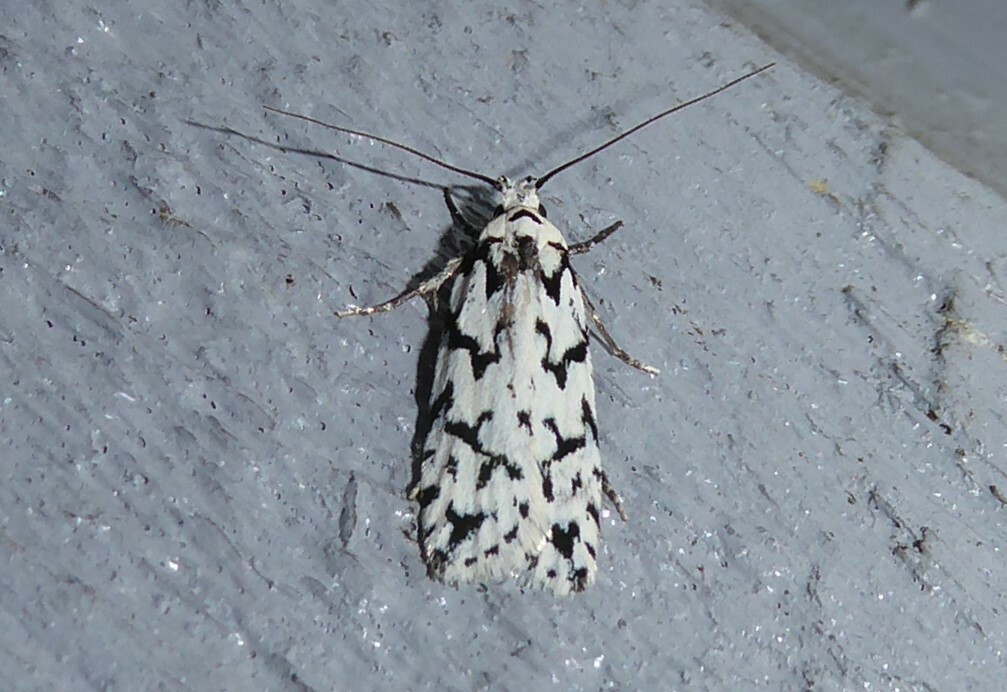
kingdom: Animalia
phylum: Arthropoda
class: Insecta
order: Lepidoptera
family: Oecophoridae
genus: Izatha
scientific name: Izatha katadiktya
